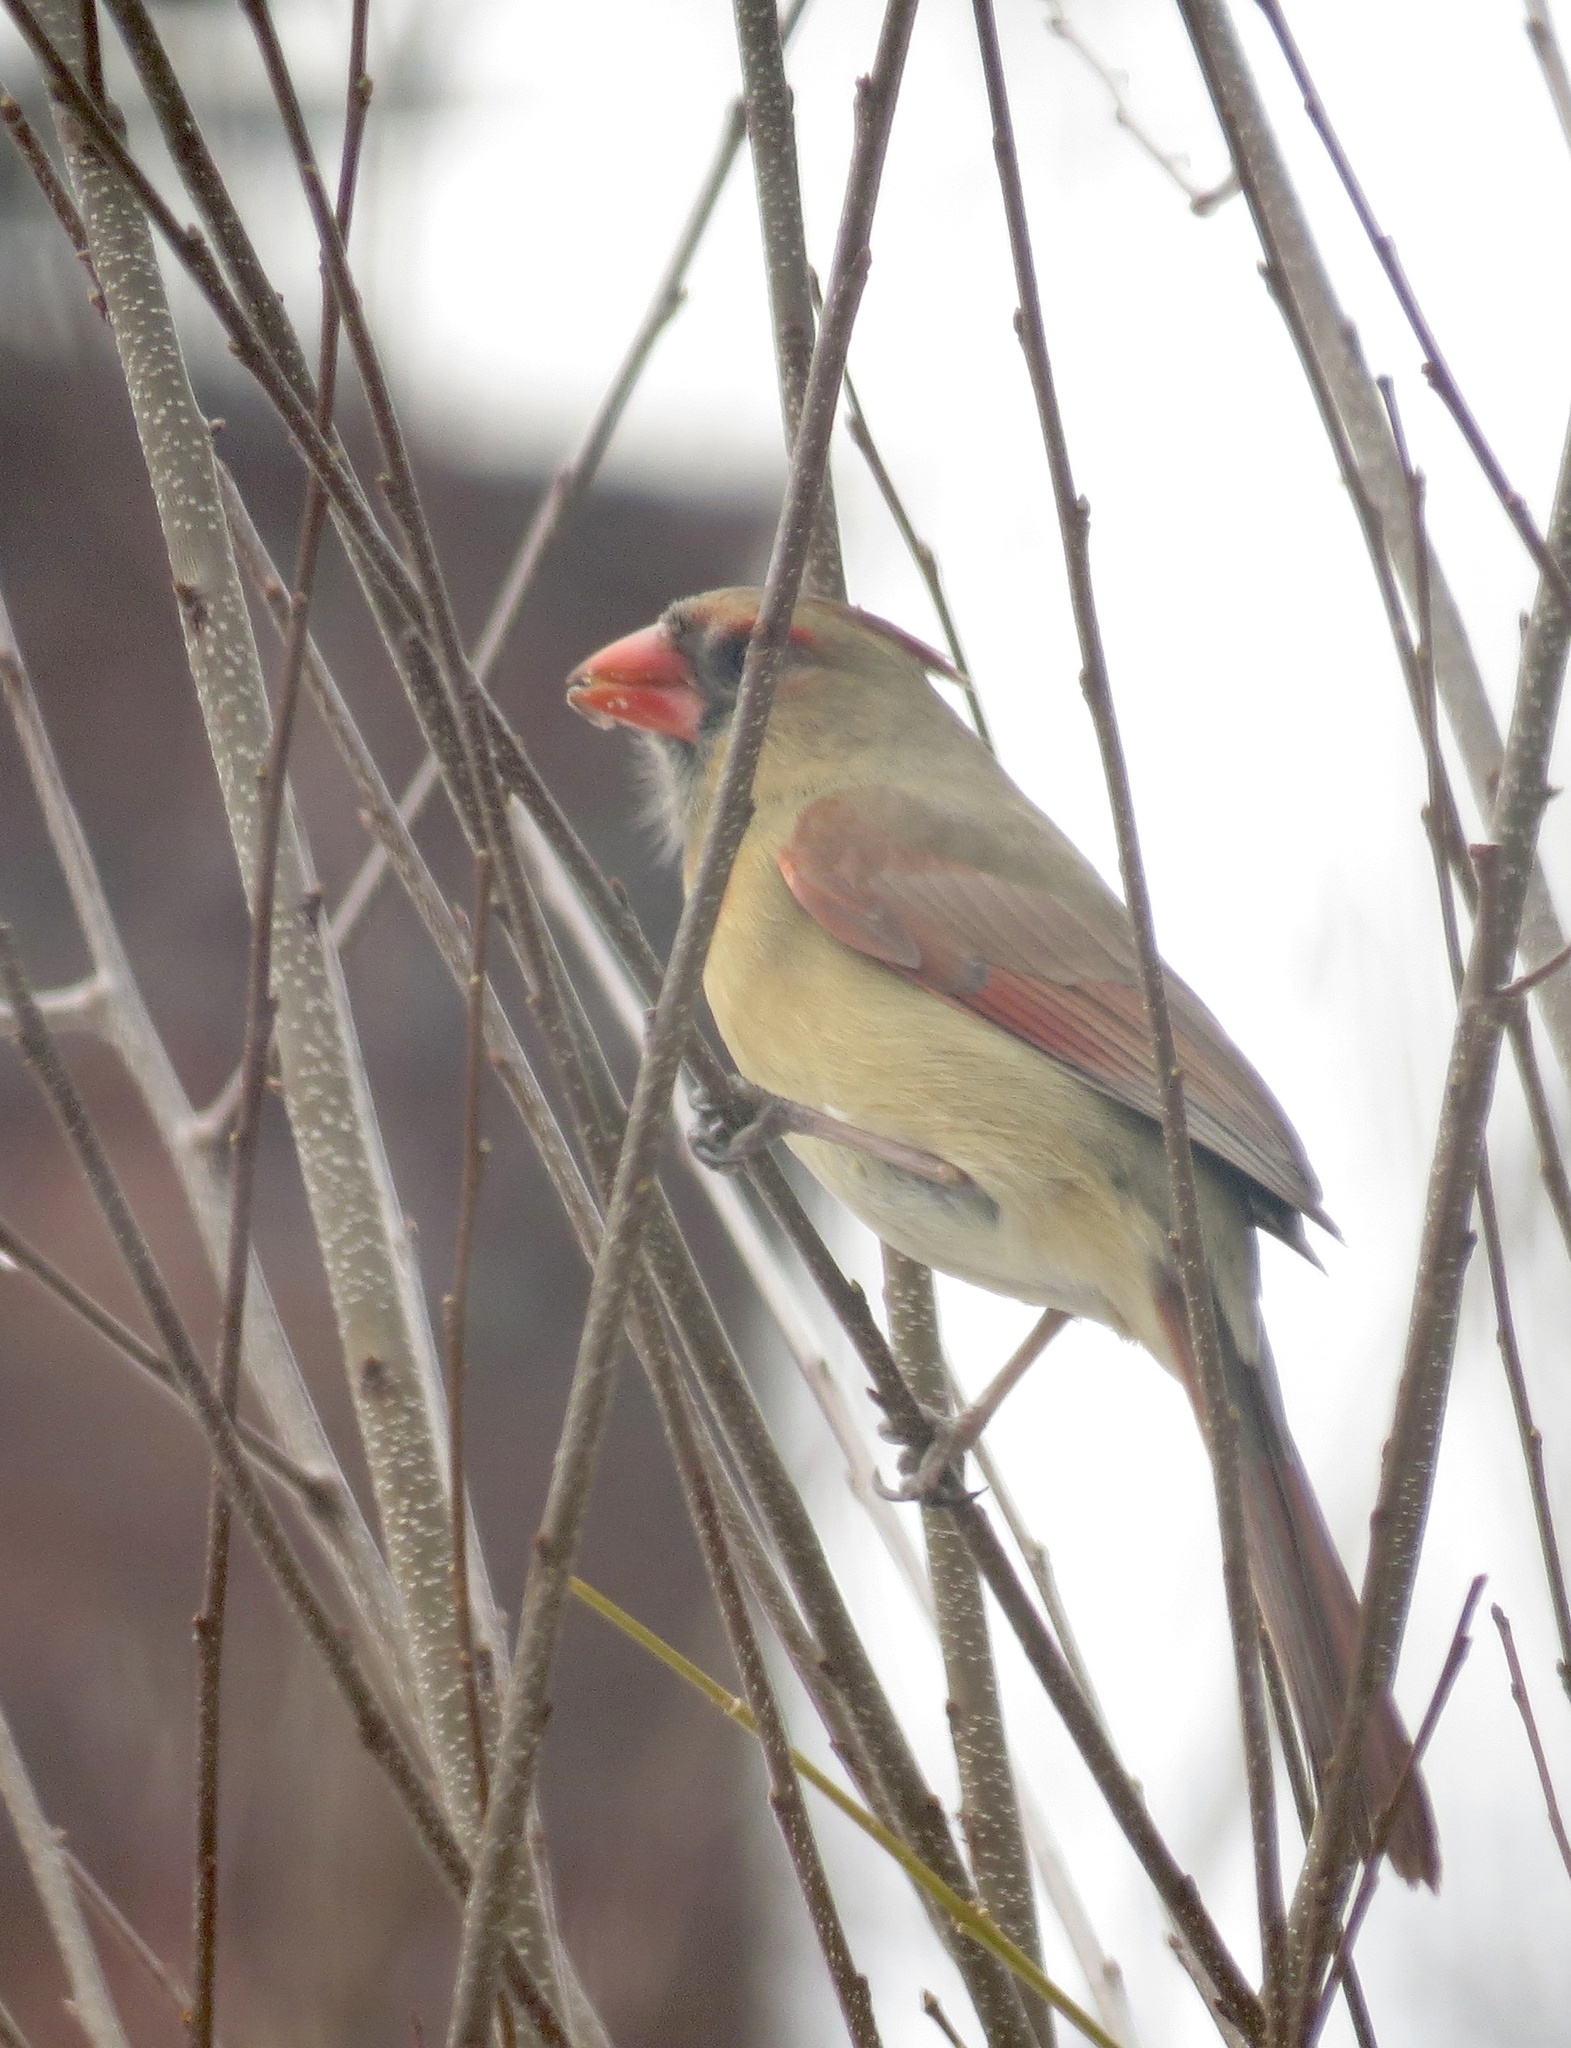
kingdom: Animalia
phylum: Chordata
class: Aves
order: Passeriformes
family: Cardinalidae
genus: Cardinalis
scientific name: Cardinalis cardinalis
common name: Northern cardinal
